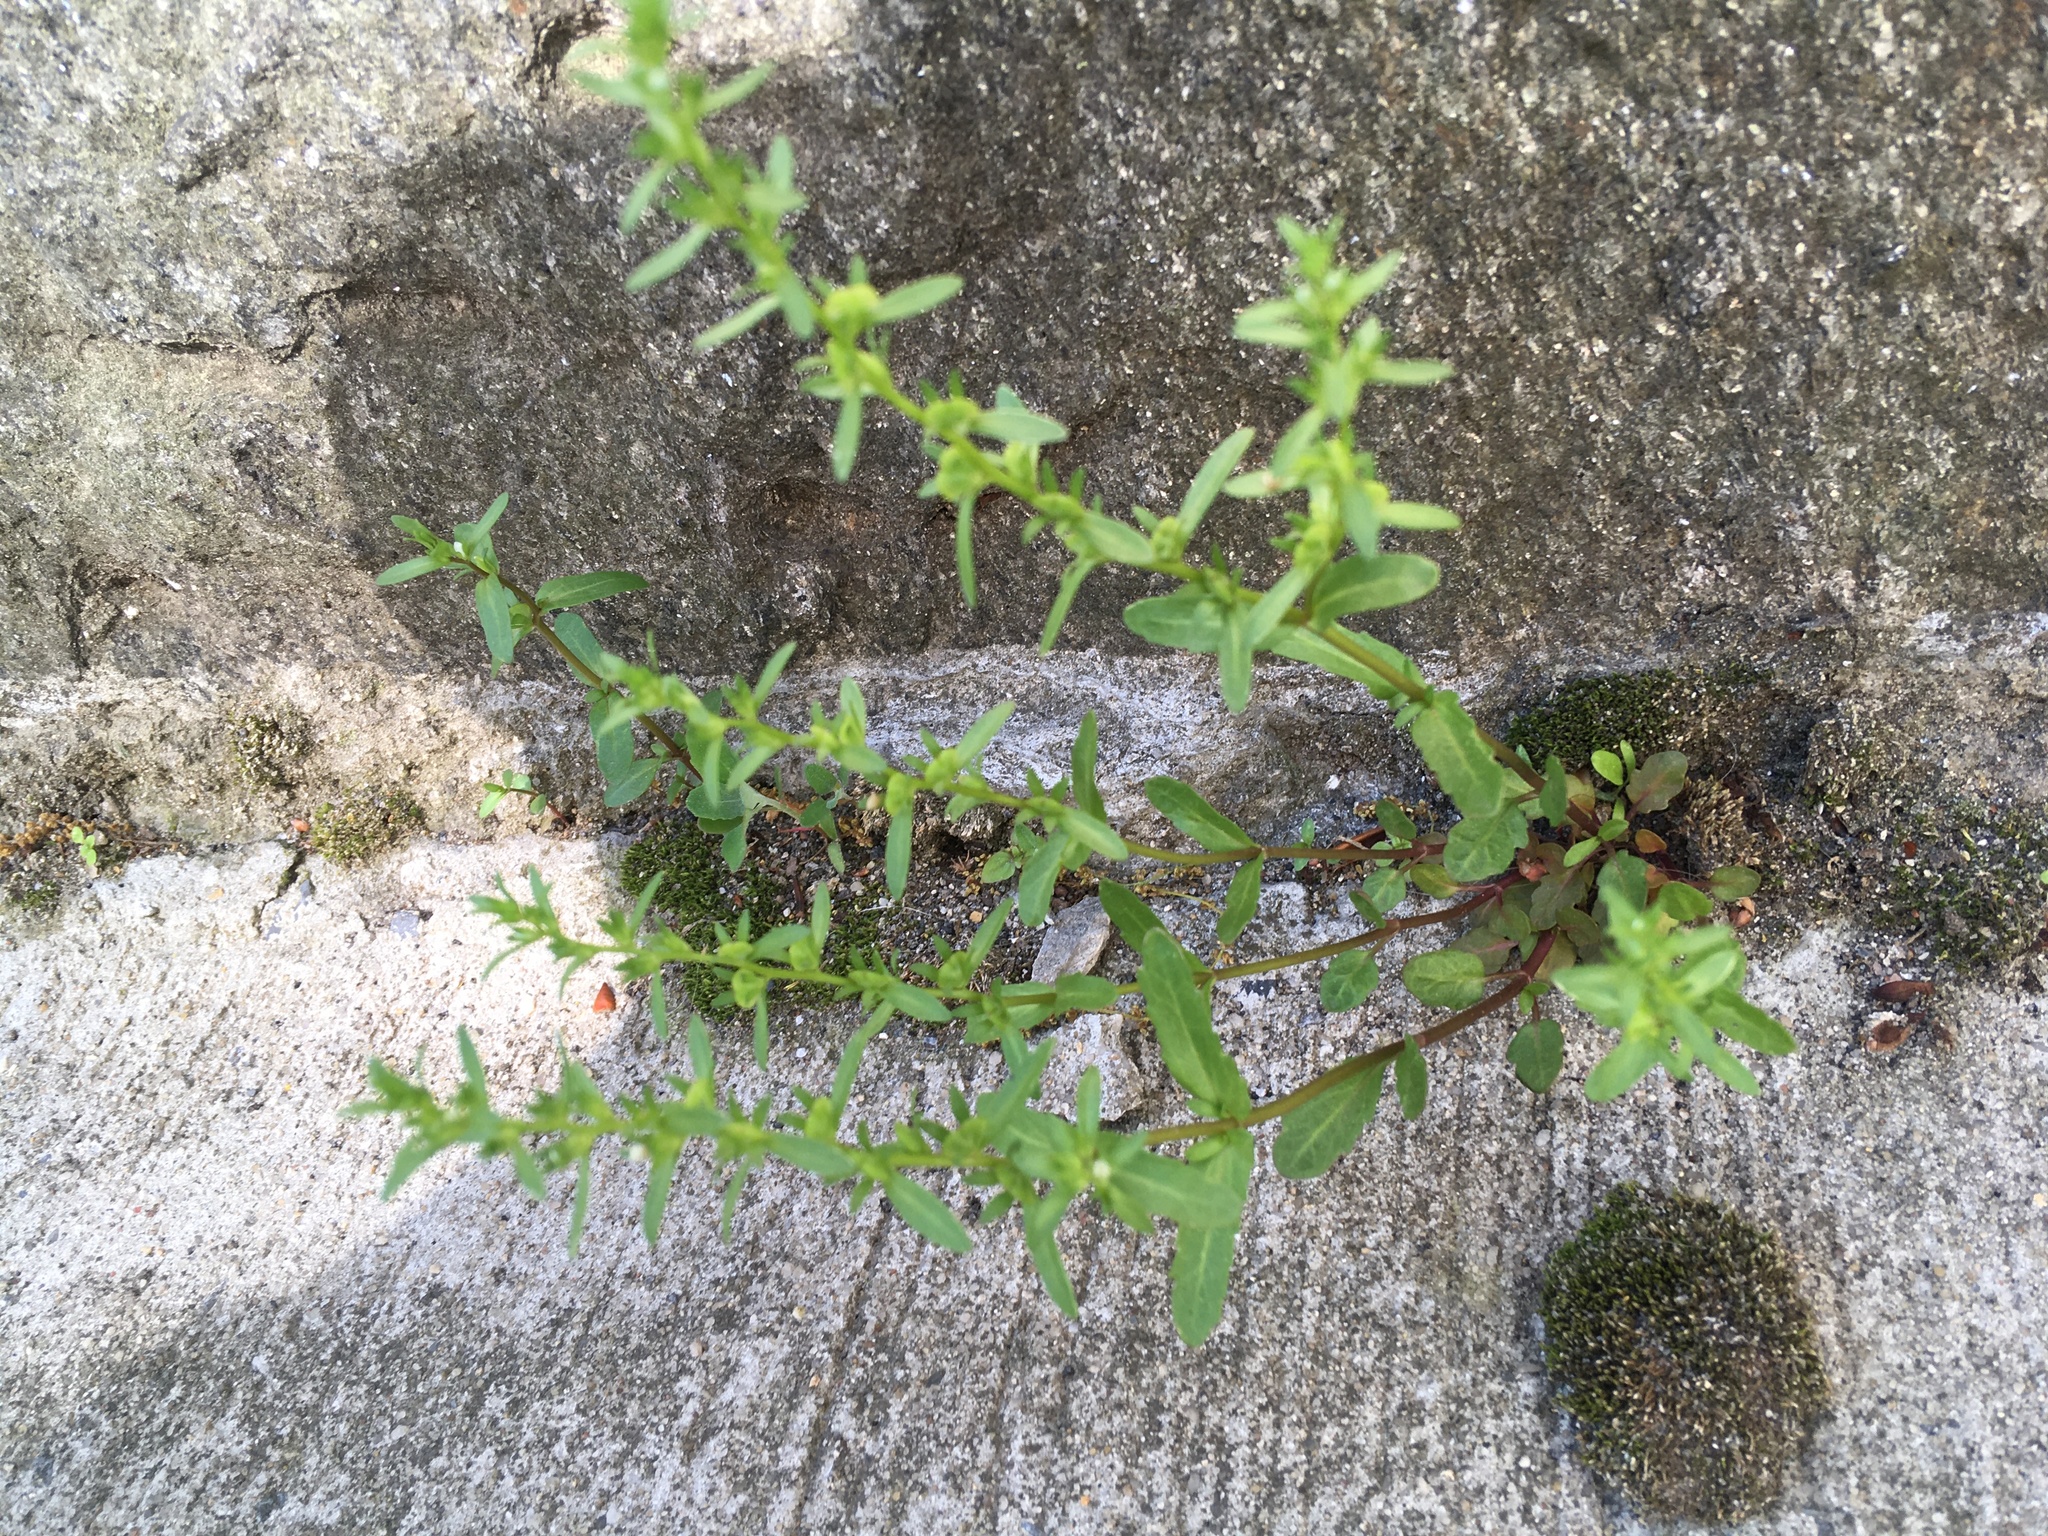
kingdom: Plantae
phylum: Tracheophyta
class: Magnoliopsida
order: Lamiales
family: Plantaginaceae
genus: Veronica
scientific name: Veronica peregrina
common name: Neckweed
